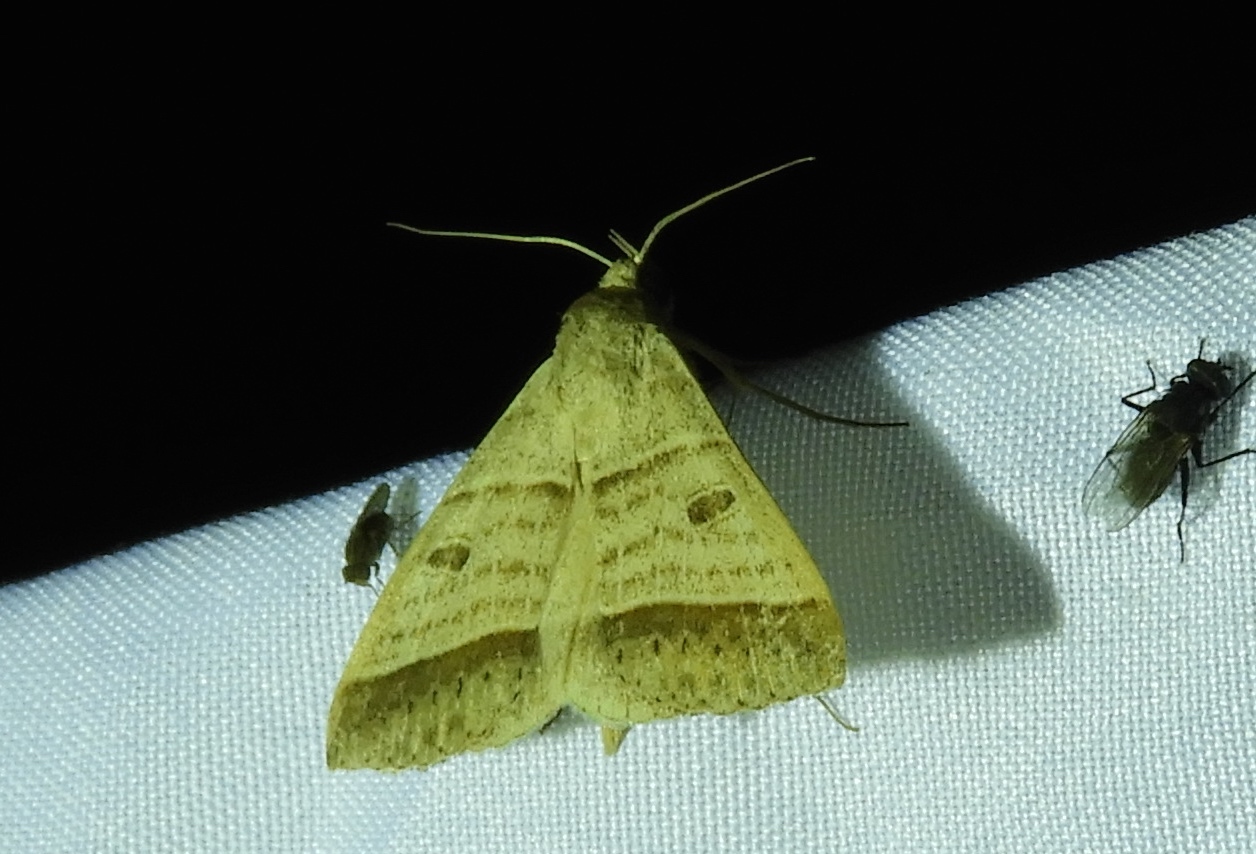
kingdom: Animalia
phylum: Arthropoda
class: Insecta
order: Lepidoptera
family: Erebidae
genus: Ptichodis
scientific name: Ptichodis vinculum
